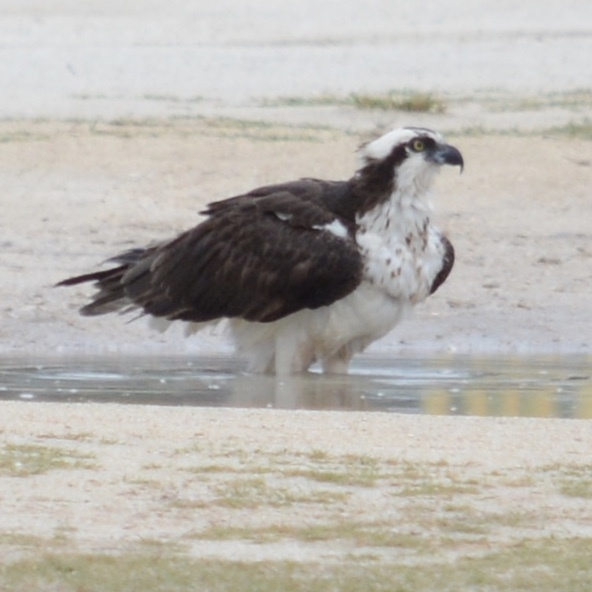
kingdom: Animalia
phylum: Chordata
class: Aves
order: Accipitriformes
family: Pandionidae
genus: Pandion
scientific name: Pandion haliaetus
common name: Osprey
